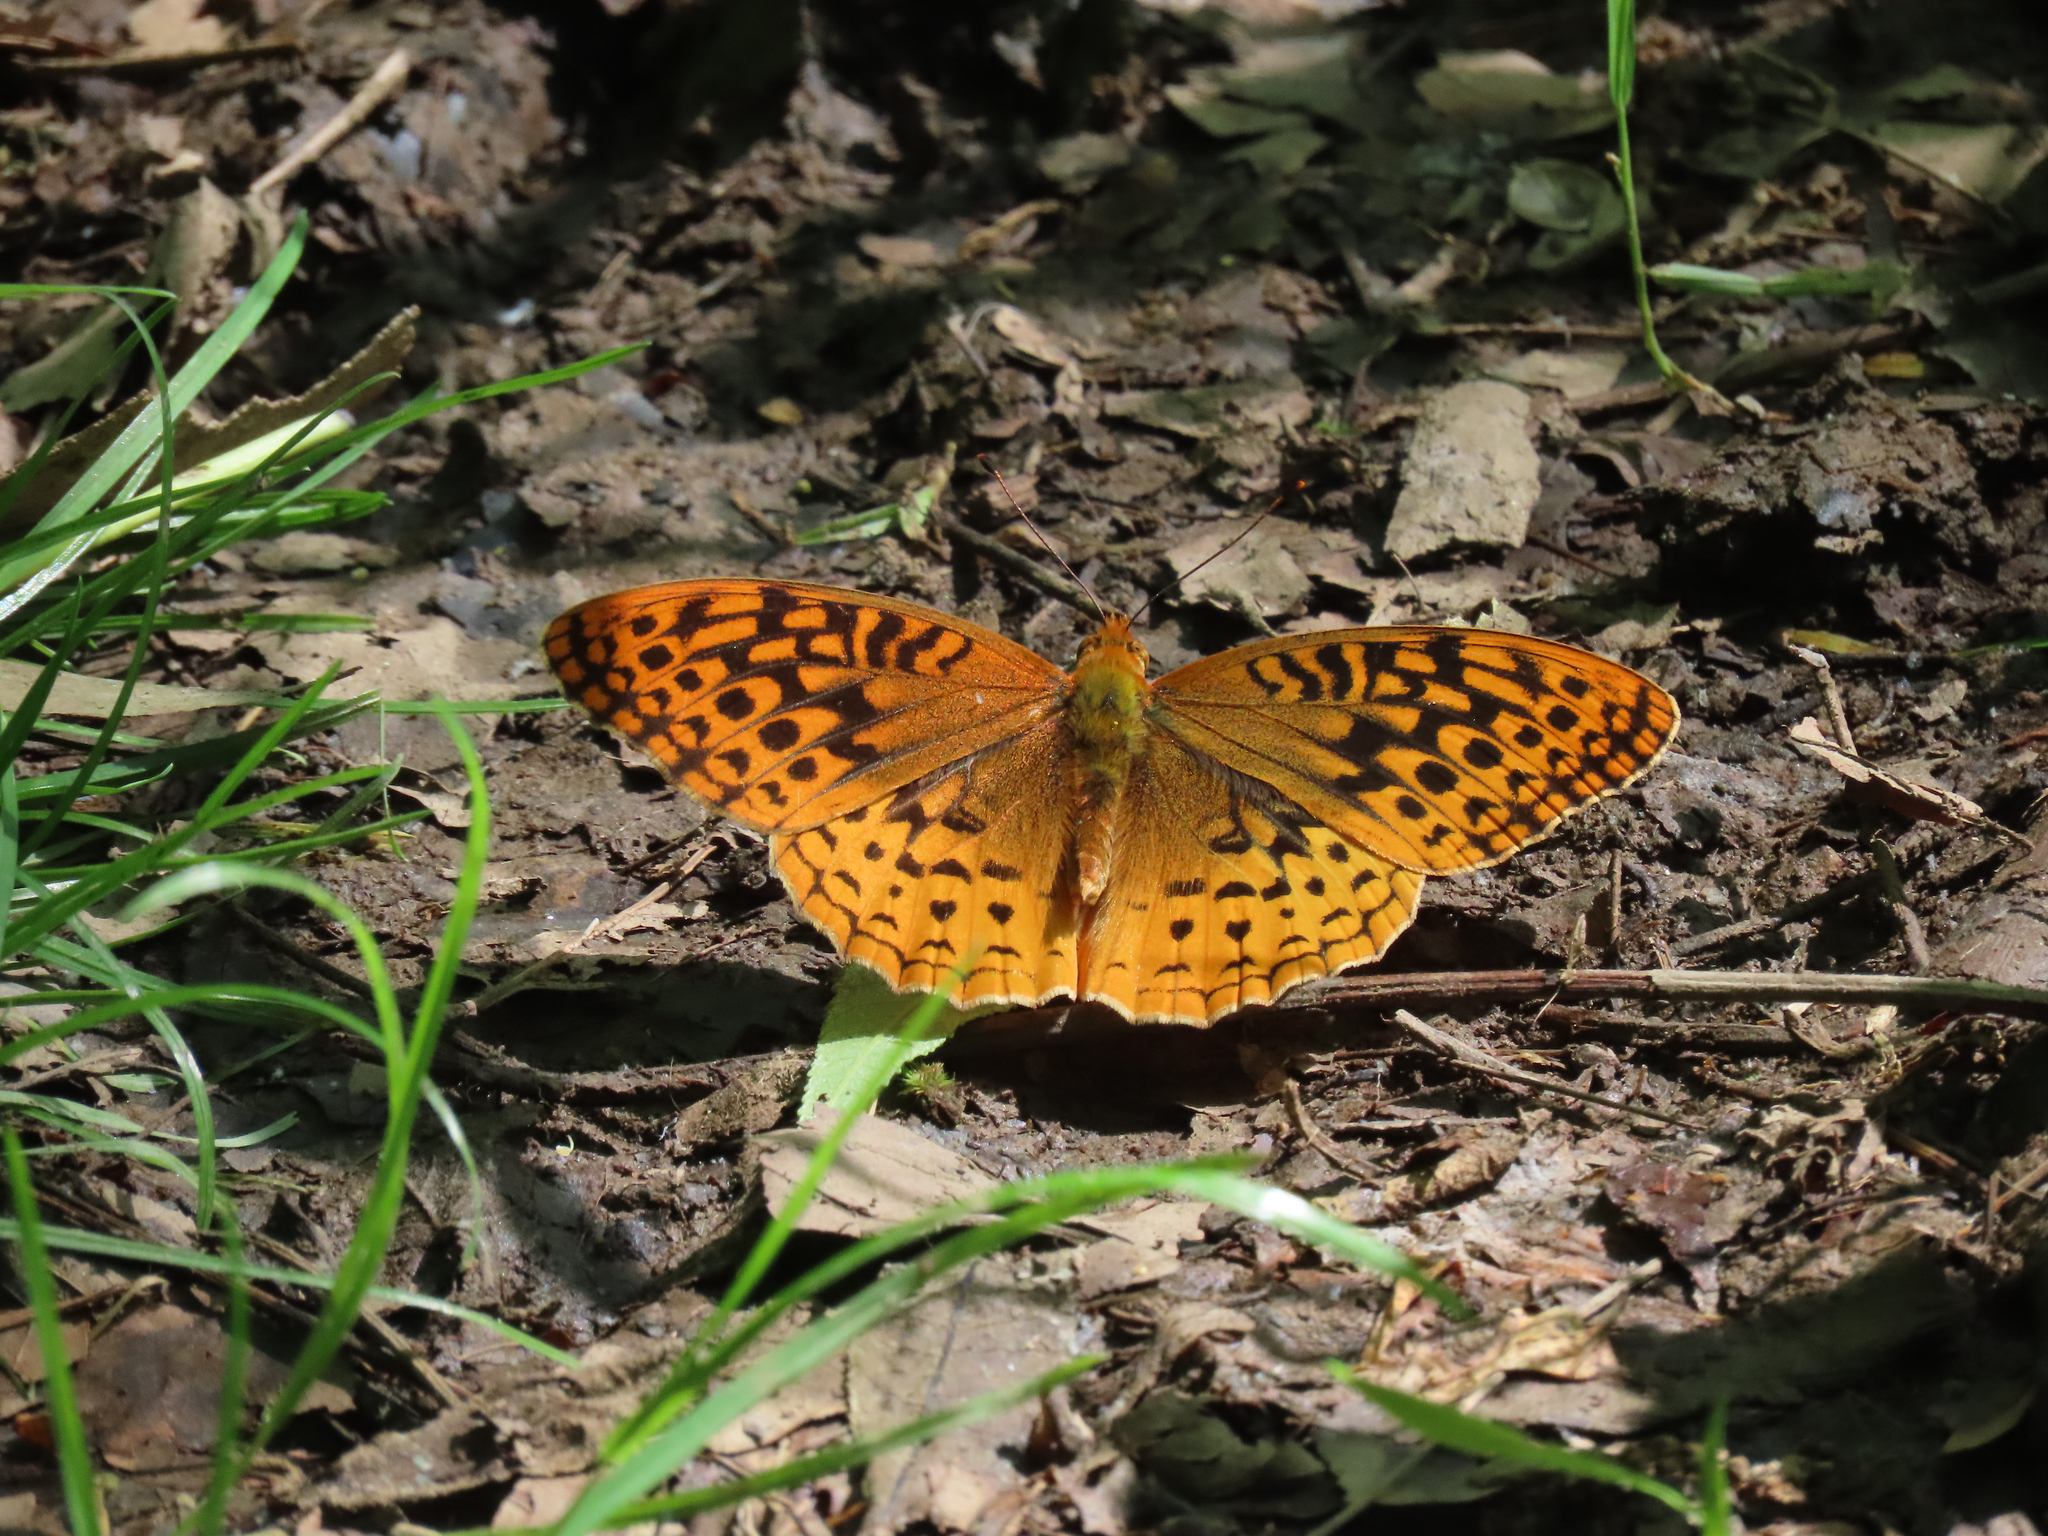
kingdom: Animalia
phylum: Arthropoda
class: Insecta
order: Lepidoptera
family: Nymphalidae
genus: Speyeria
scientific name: Speyeria cybele
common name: Great spangled fritillary
